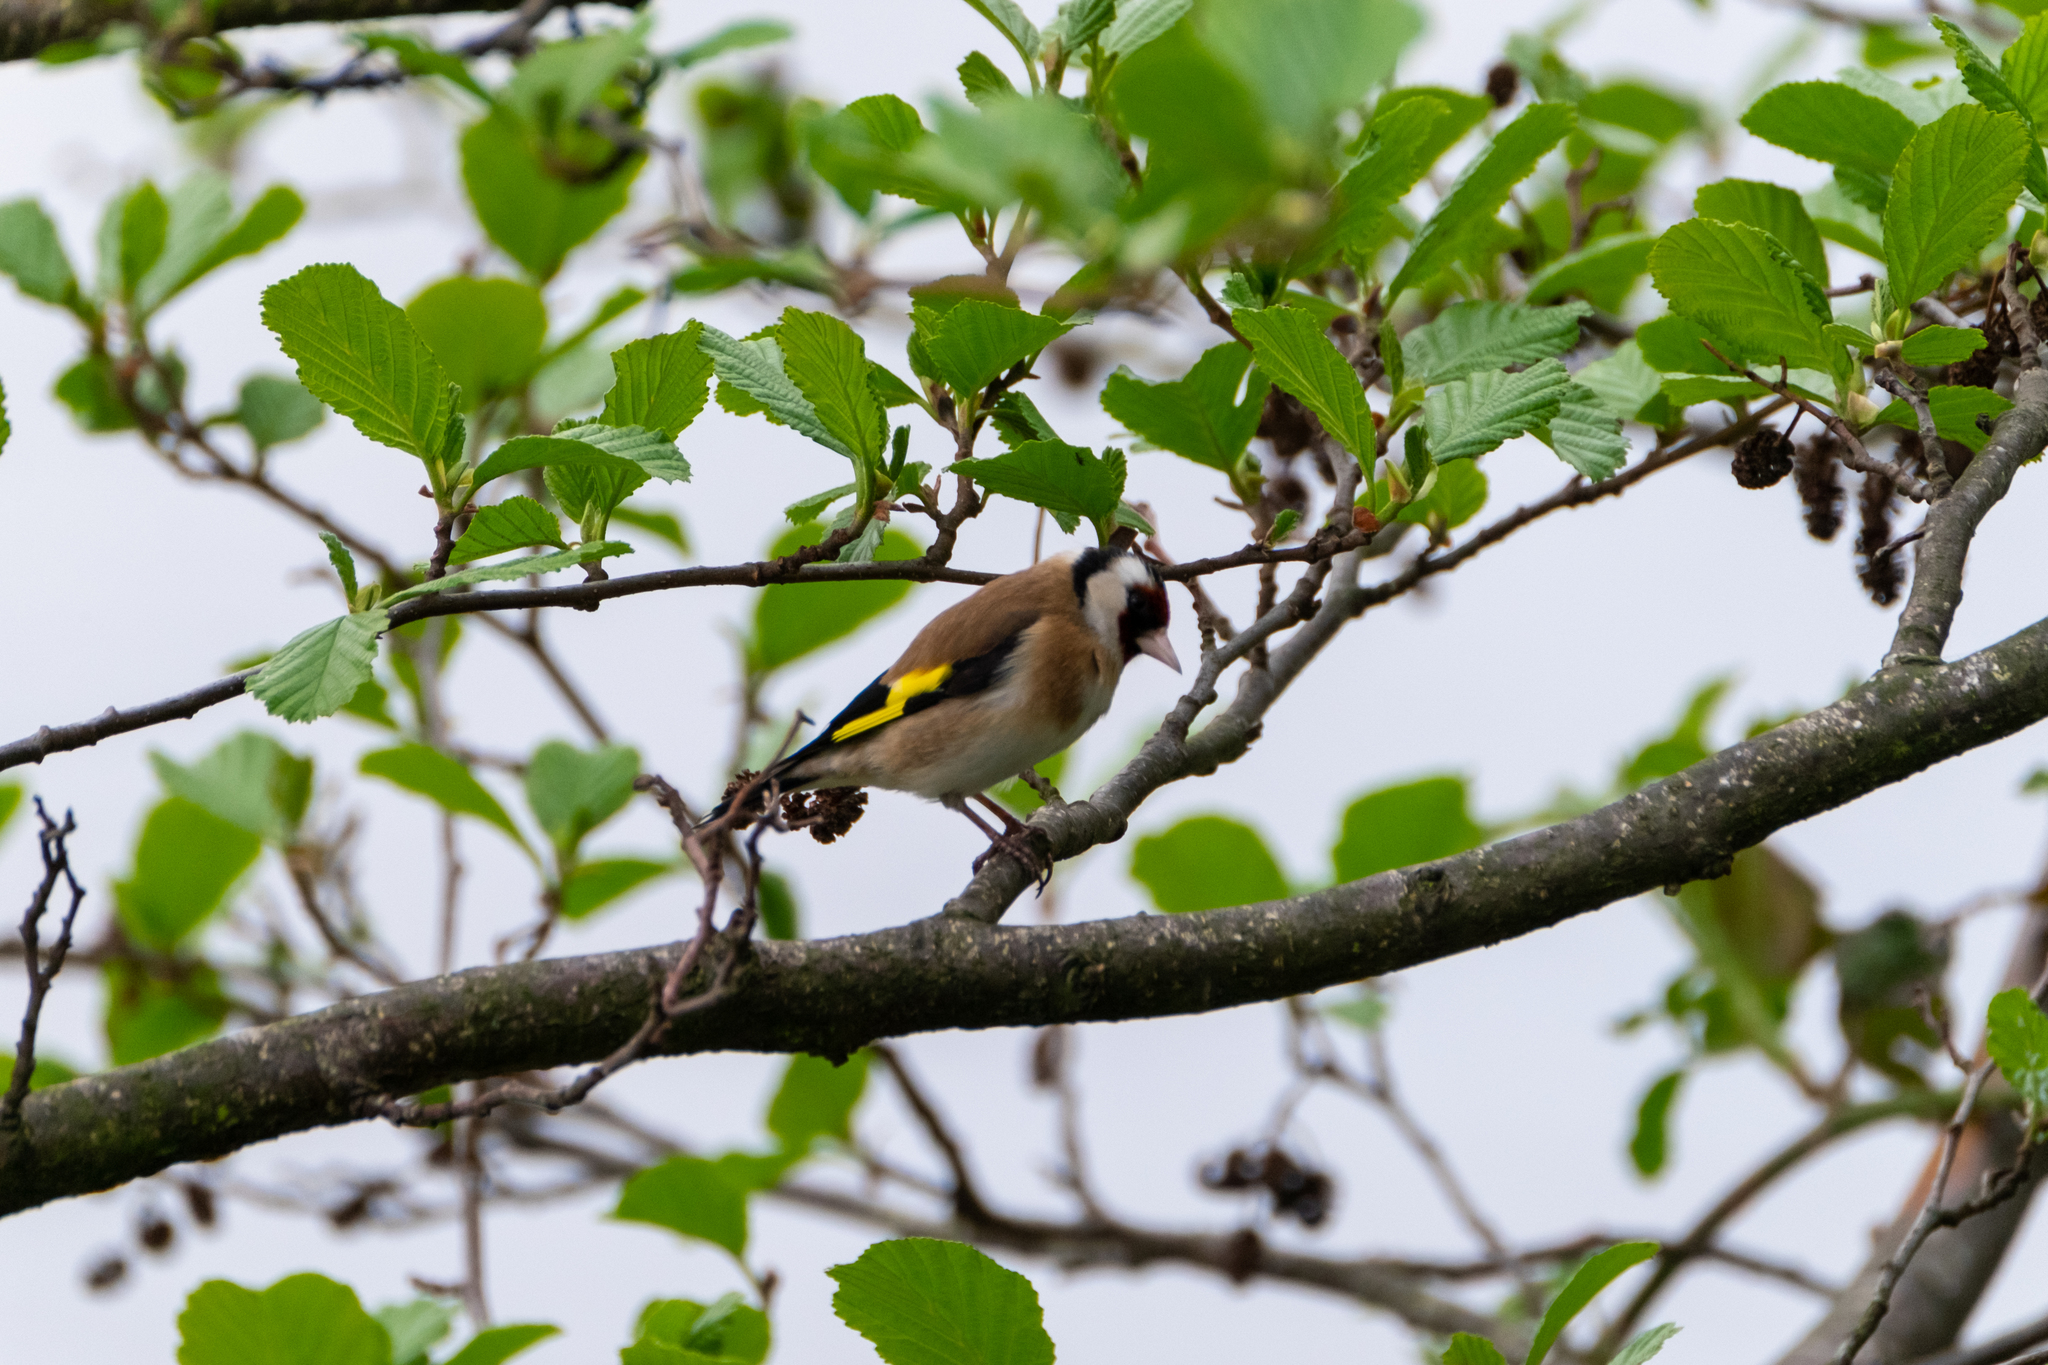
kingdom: Animalia
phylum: Chordata
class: Aves
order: Passeriformes
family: Fringillidae
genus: Carduelis
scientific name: Carduelis carduelis
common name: European goldfinch
